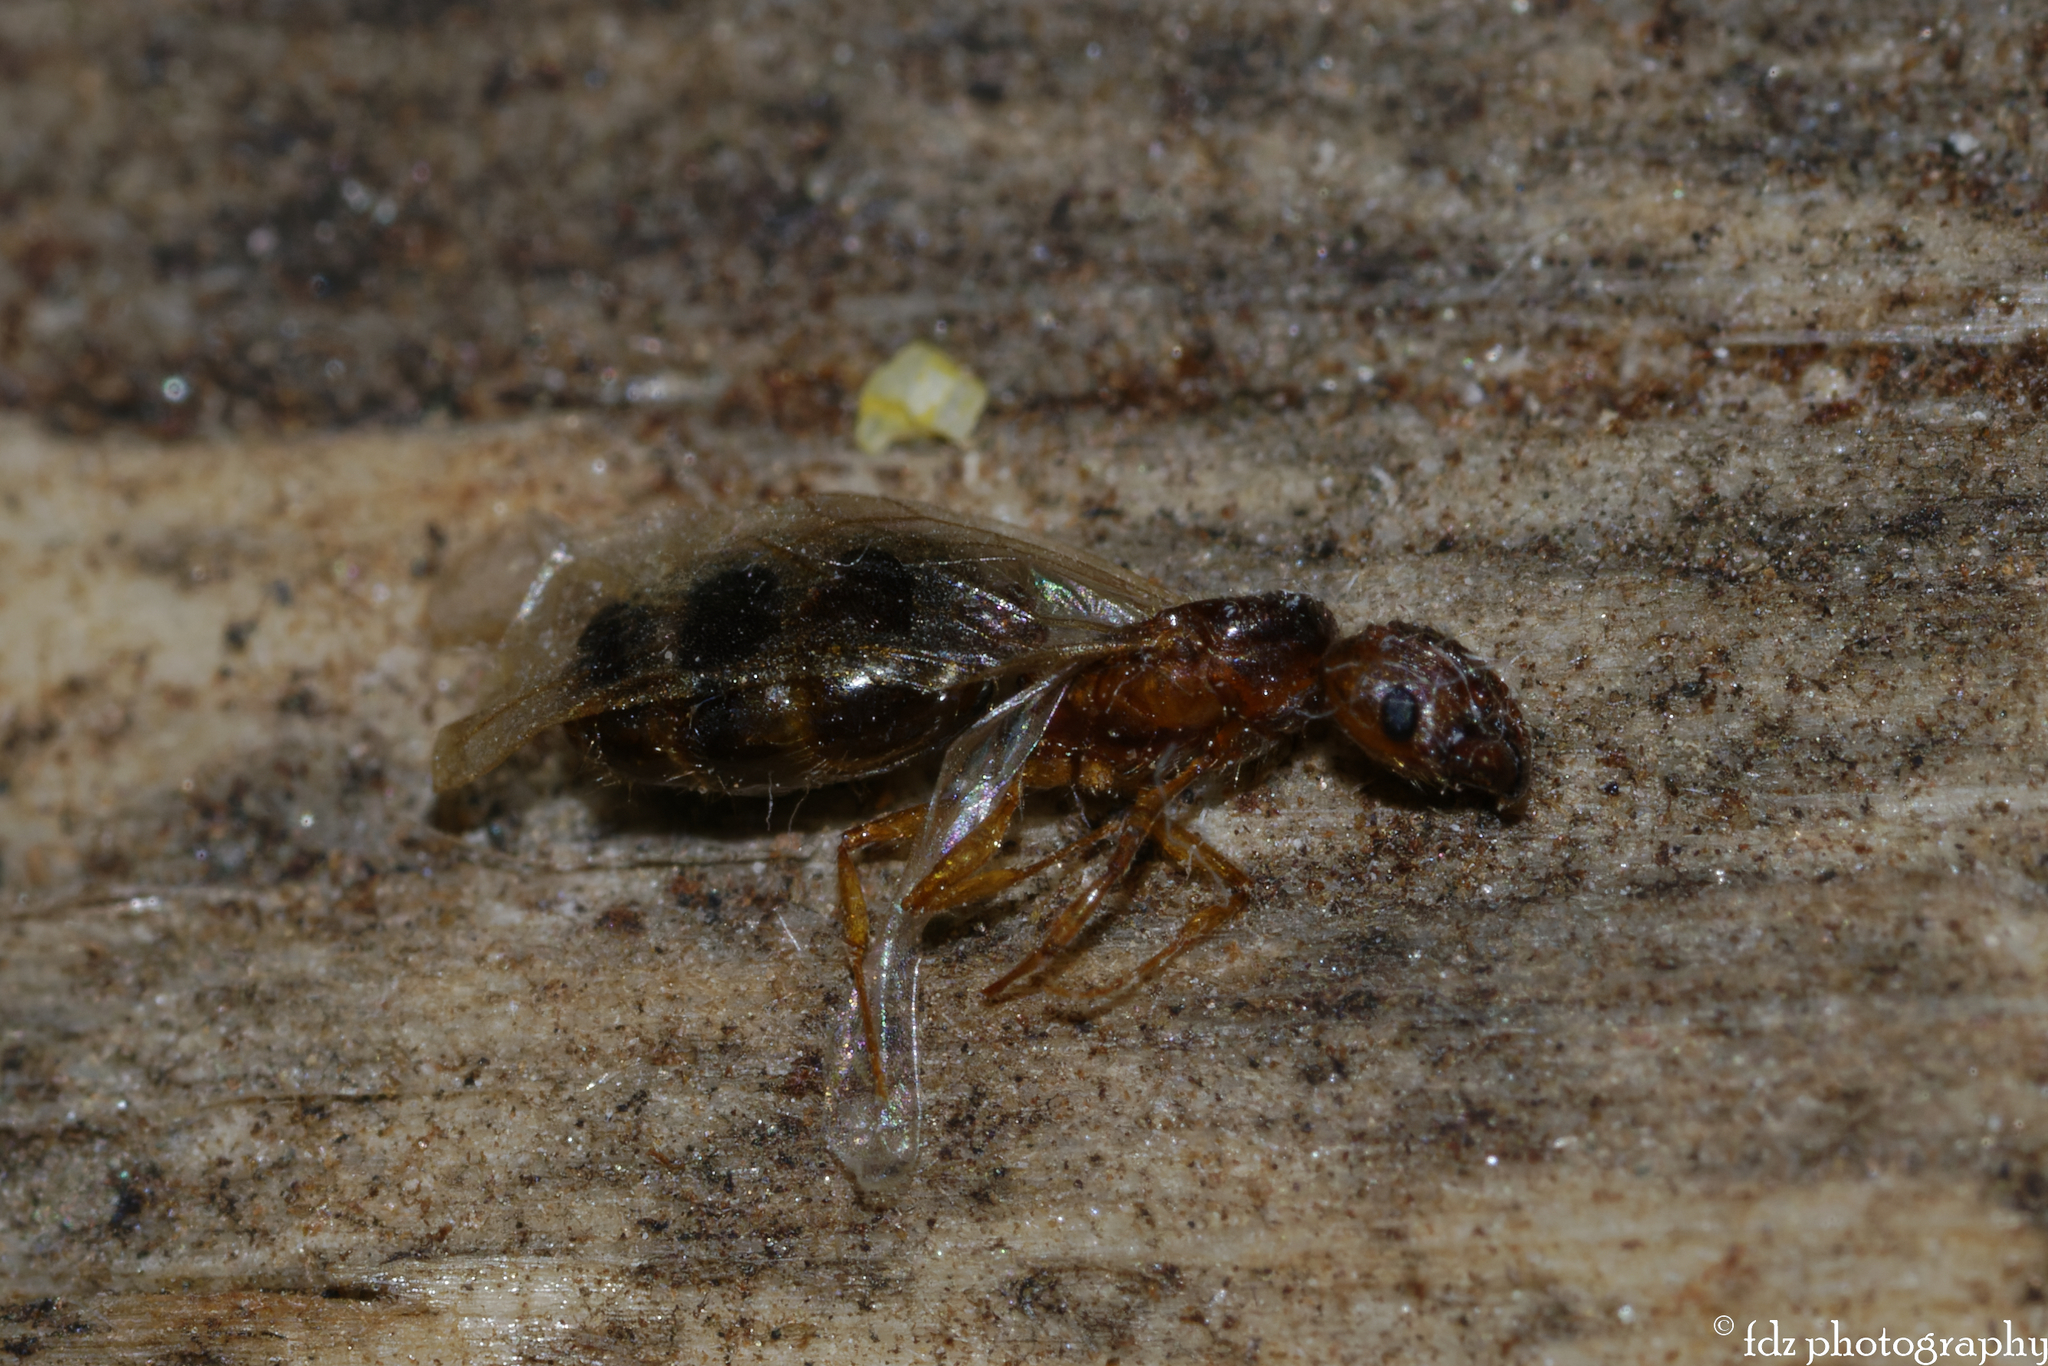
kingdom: Animalia
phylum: Arthropoda
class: Insecta
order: Hymenoptera
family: Formicidae
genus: Pheidole
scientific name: Pheidole pallidula
